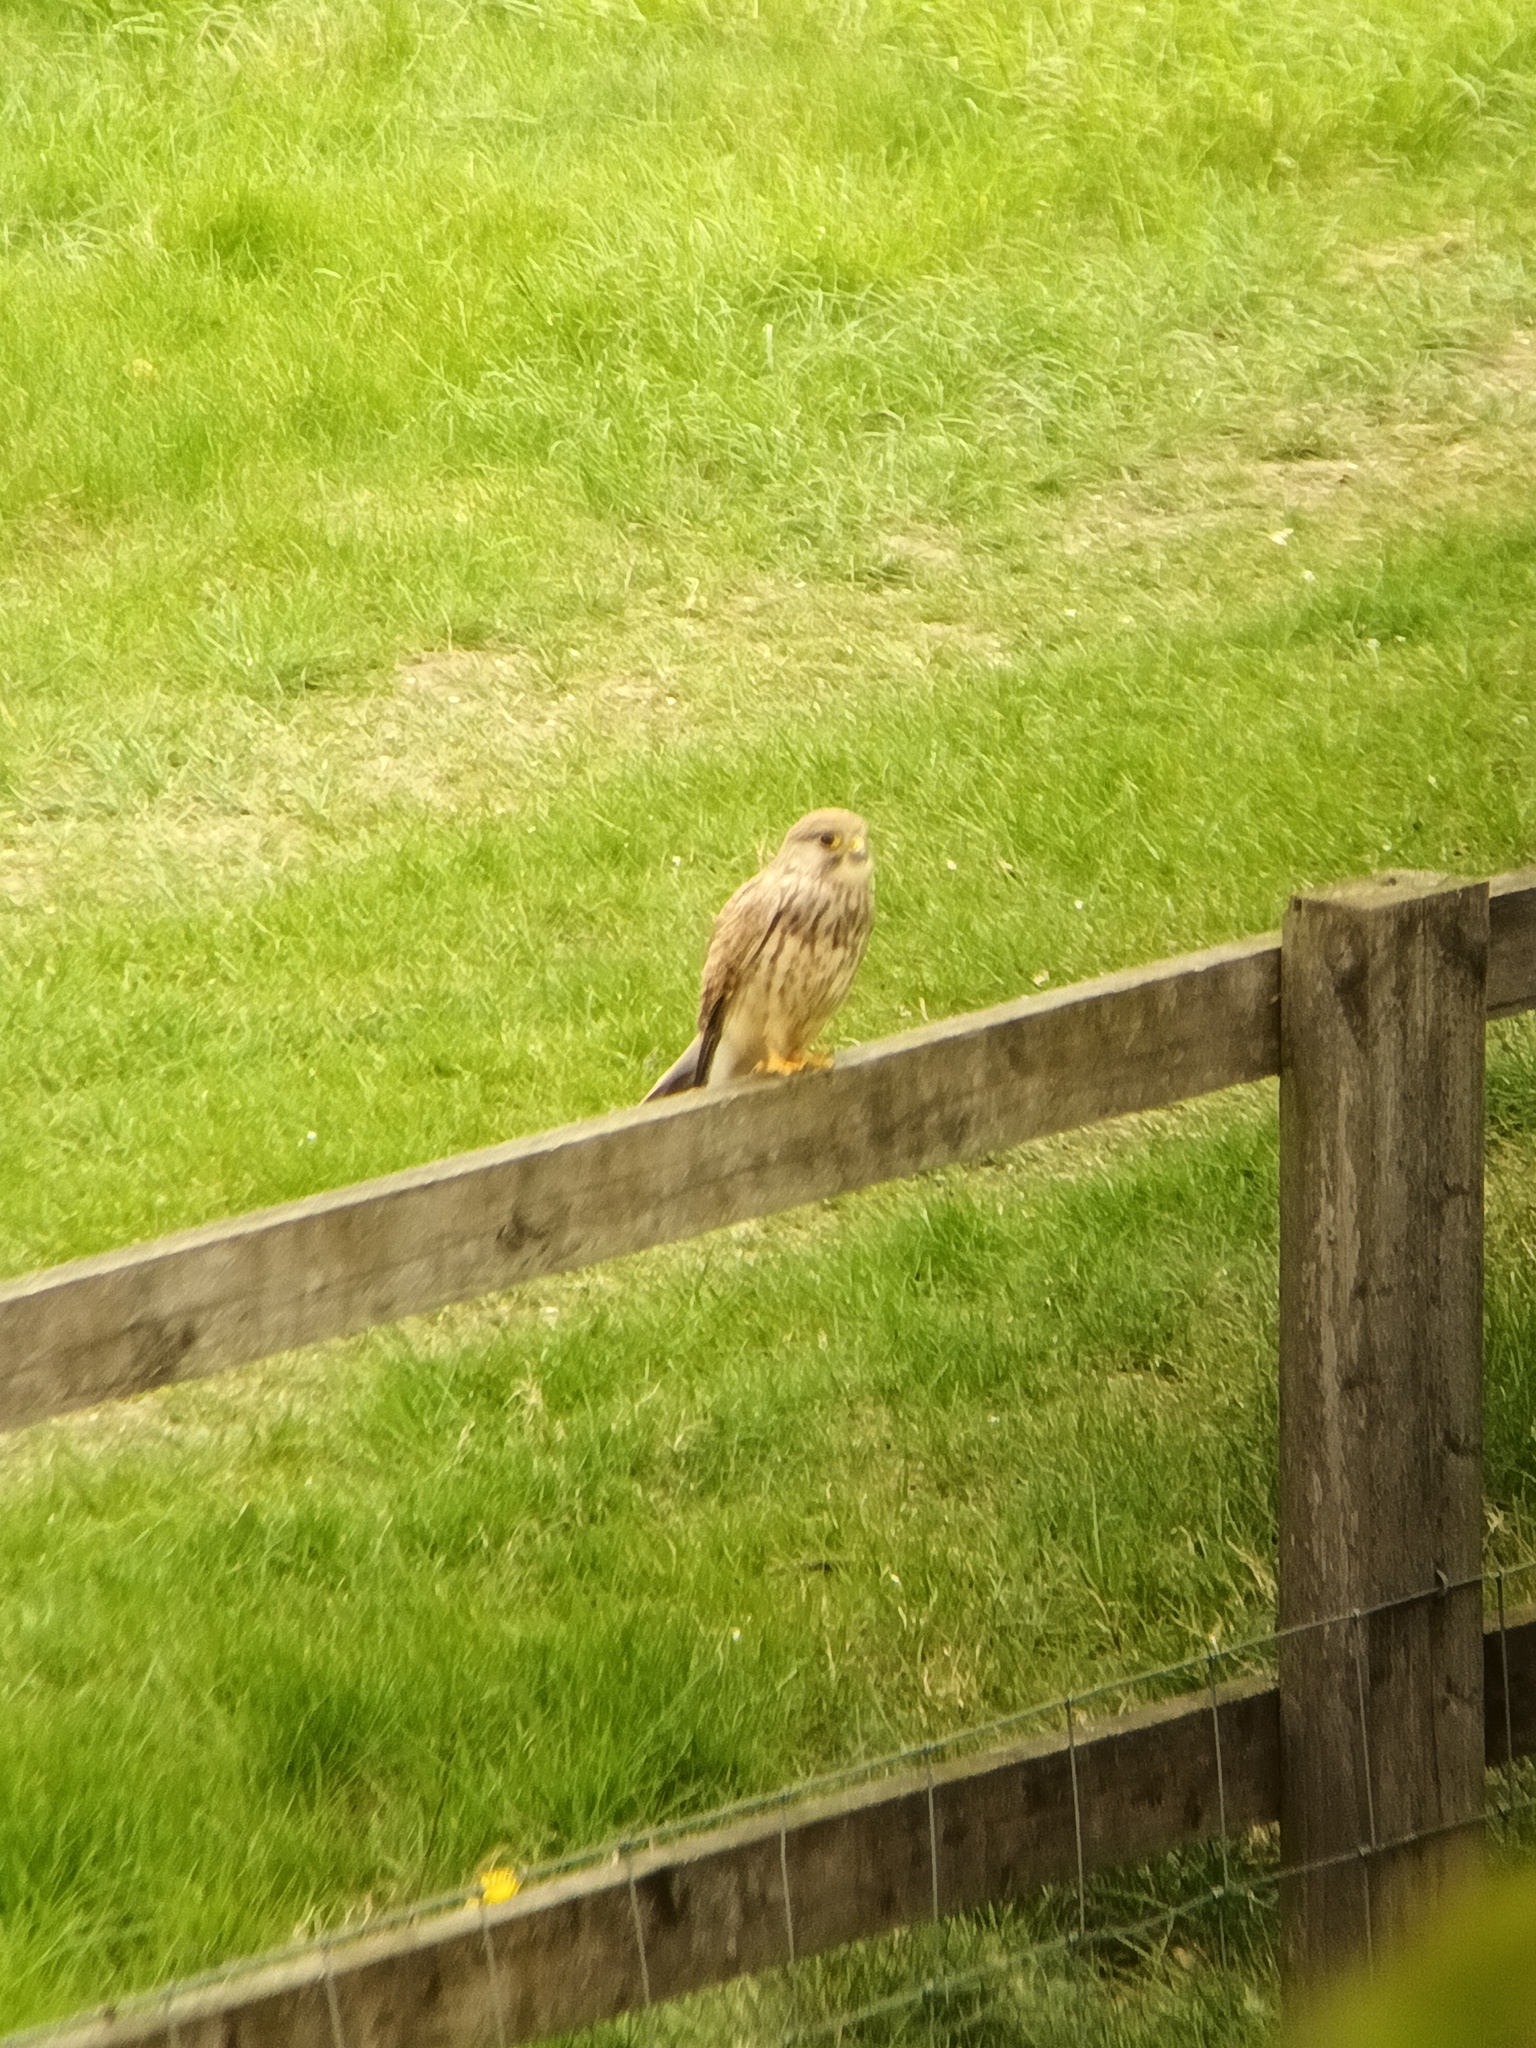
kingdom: Animalia
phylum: Chordata
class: Aves
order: Falconiformes
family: Falconidae
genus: Falco
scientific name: Falco tinnunculus
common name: Common kestrel
